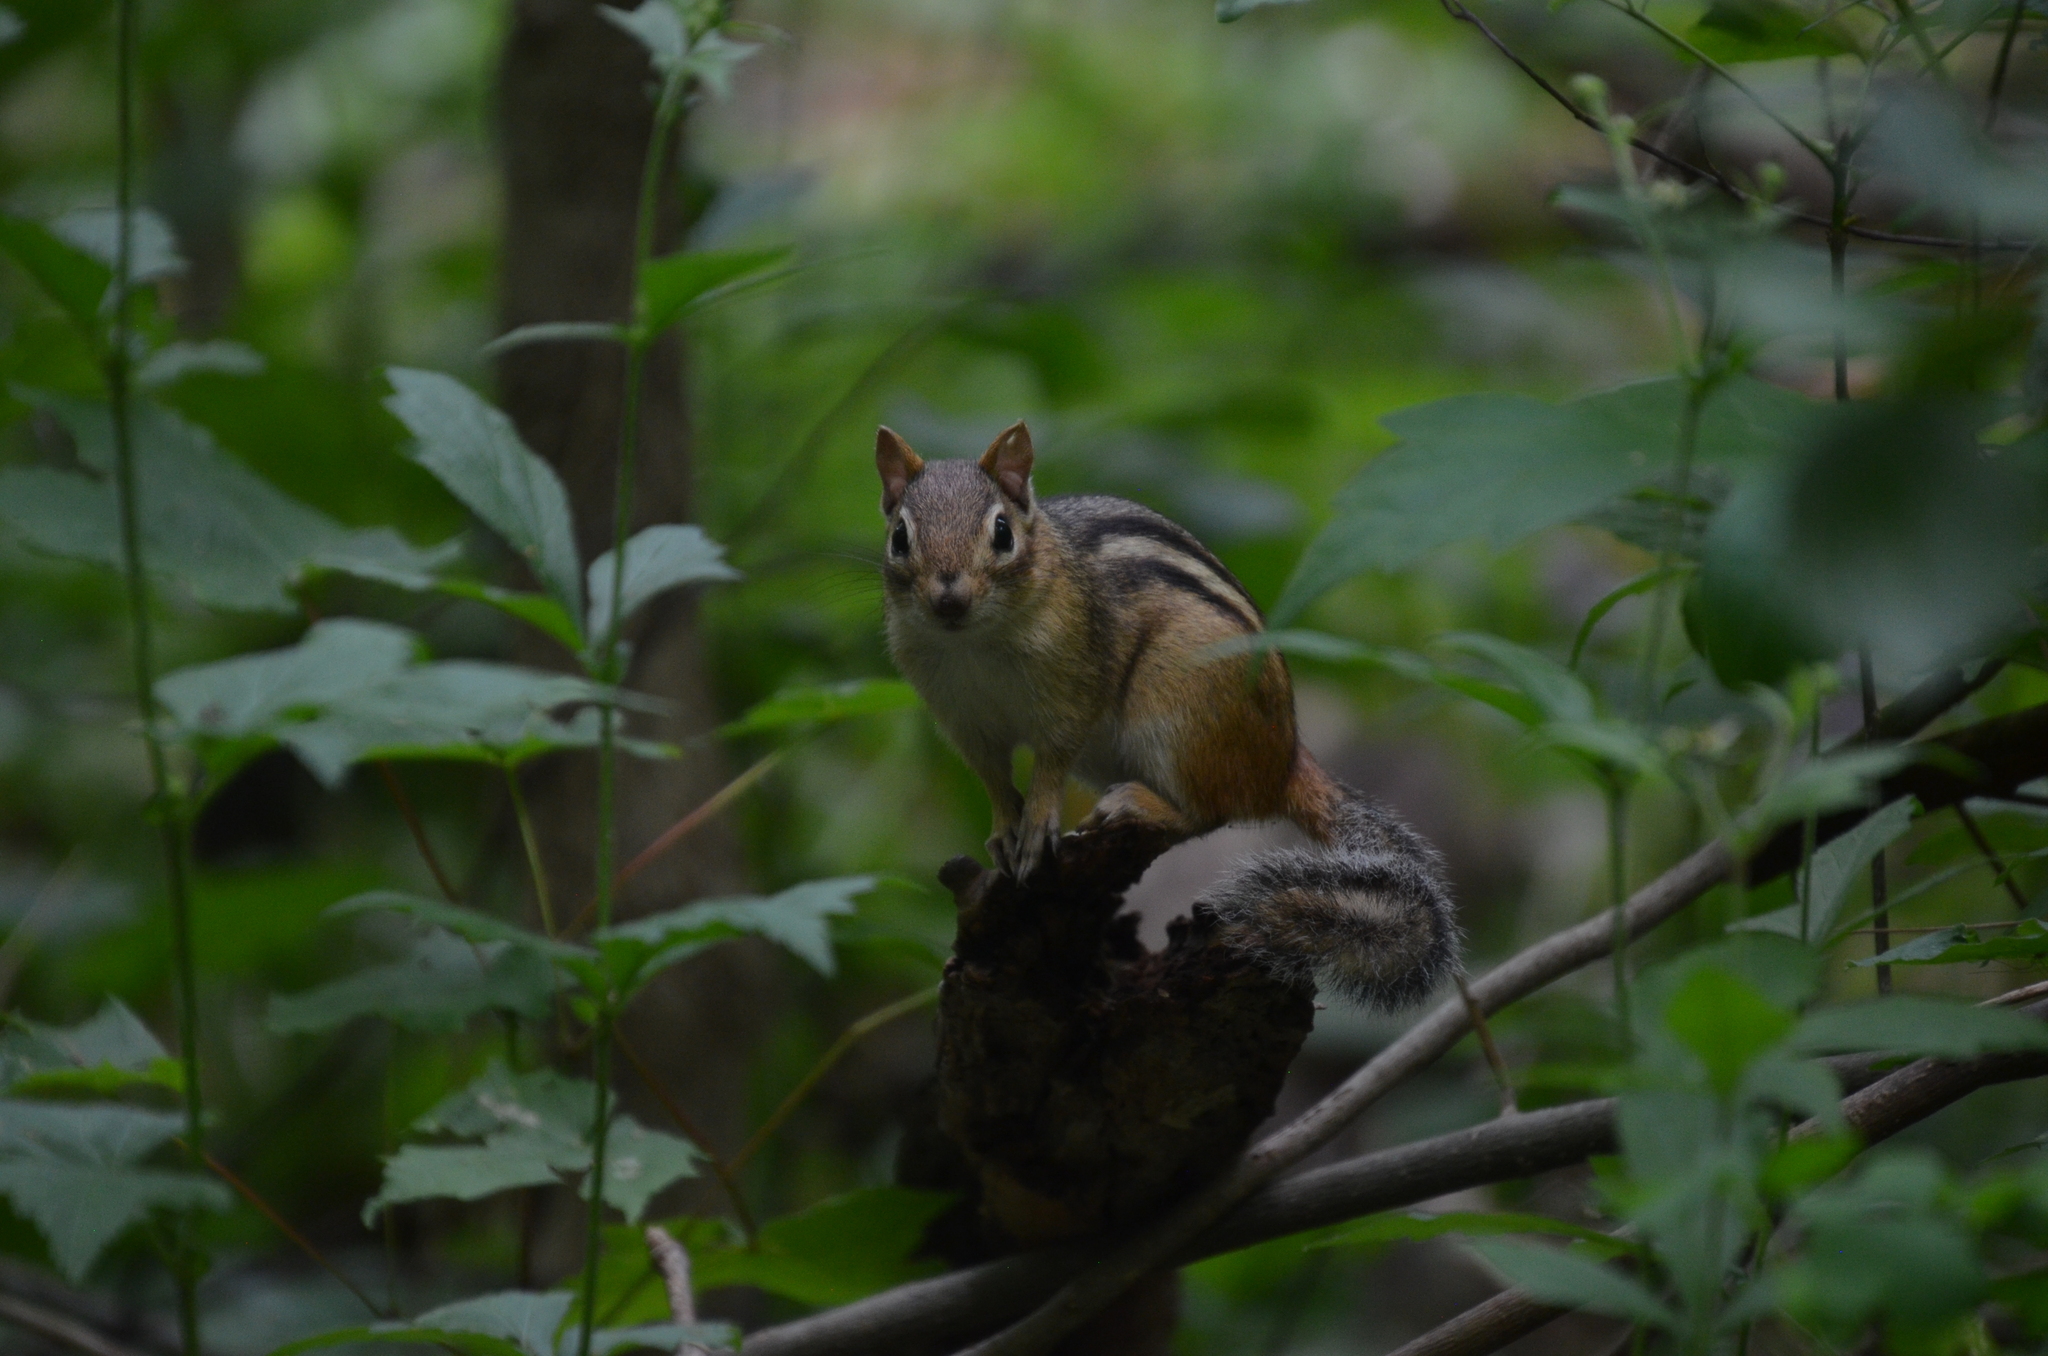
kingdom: Animalia
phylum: Chordata
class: Mammalia
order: Rodentia
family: Sciuridae
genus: Tamias
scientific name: Tamias striatus
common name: Eastern chipmunk
